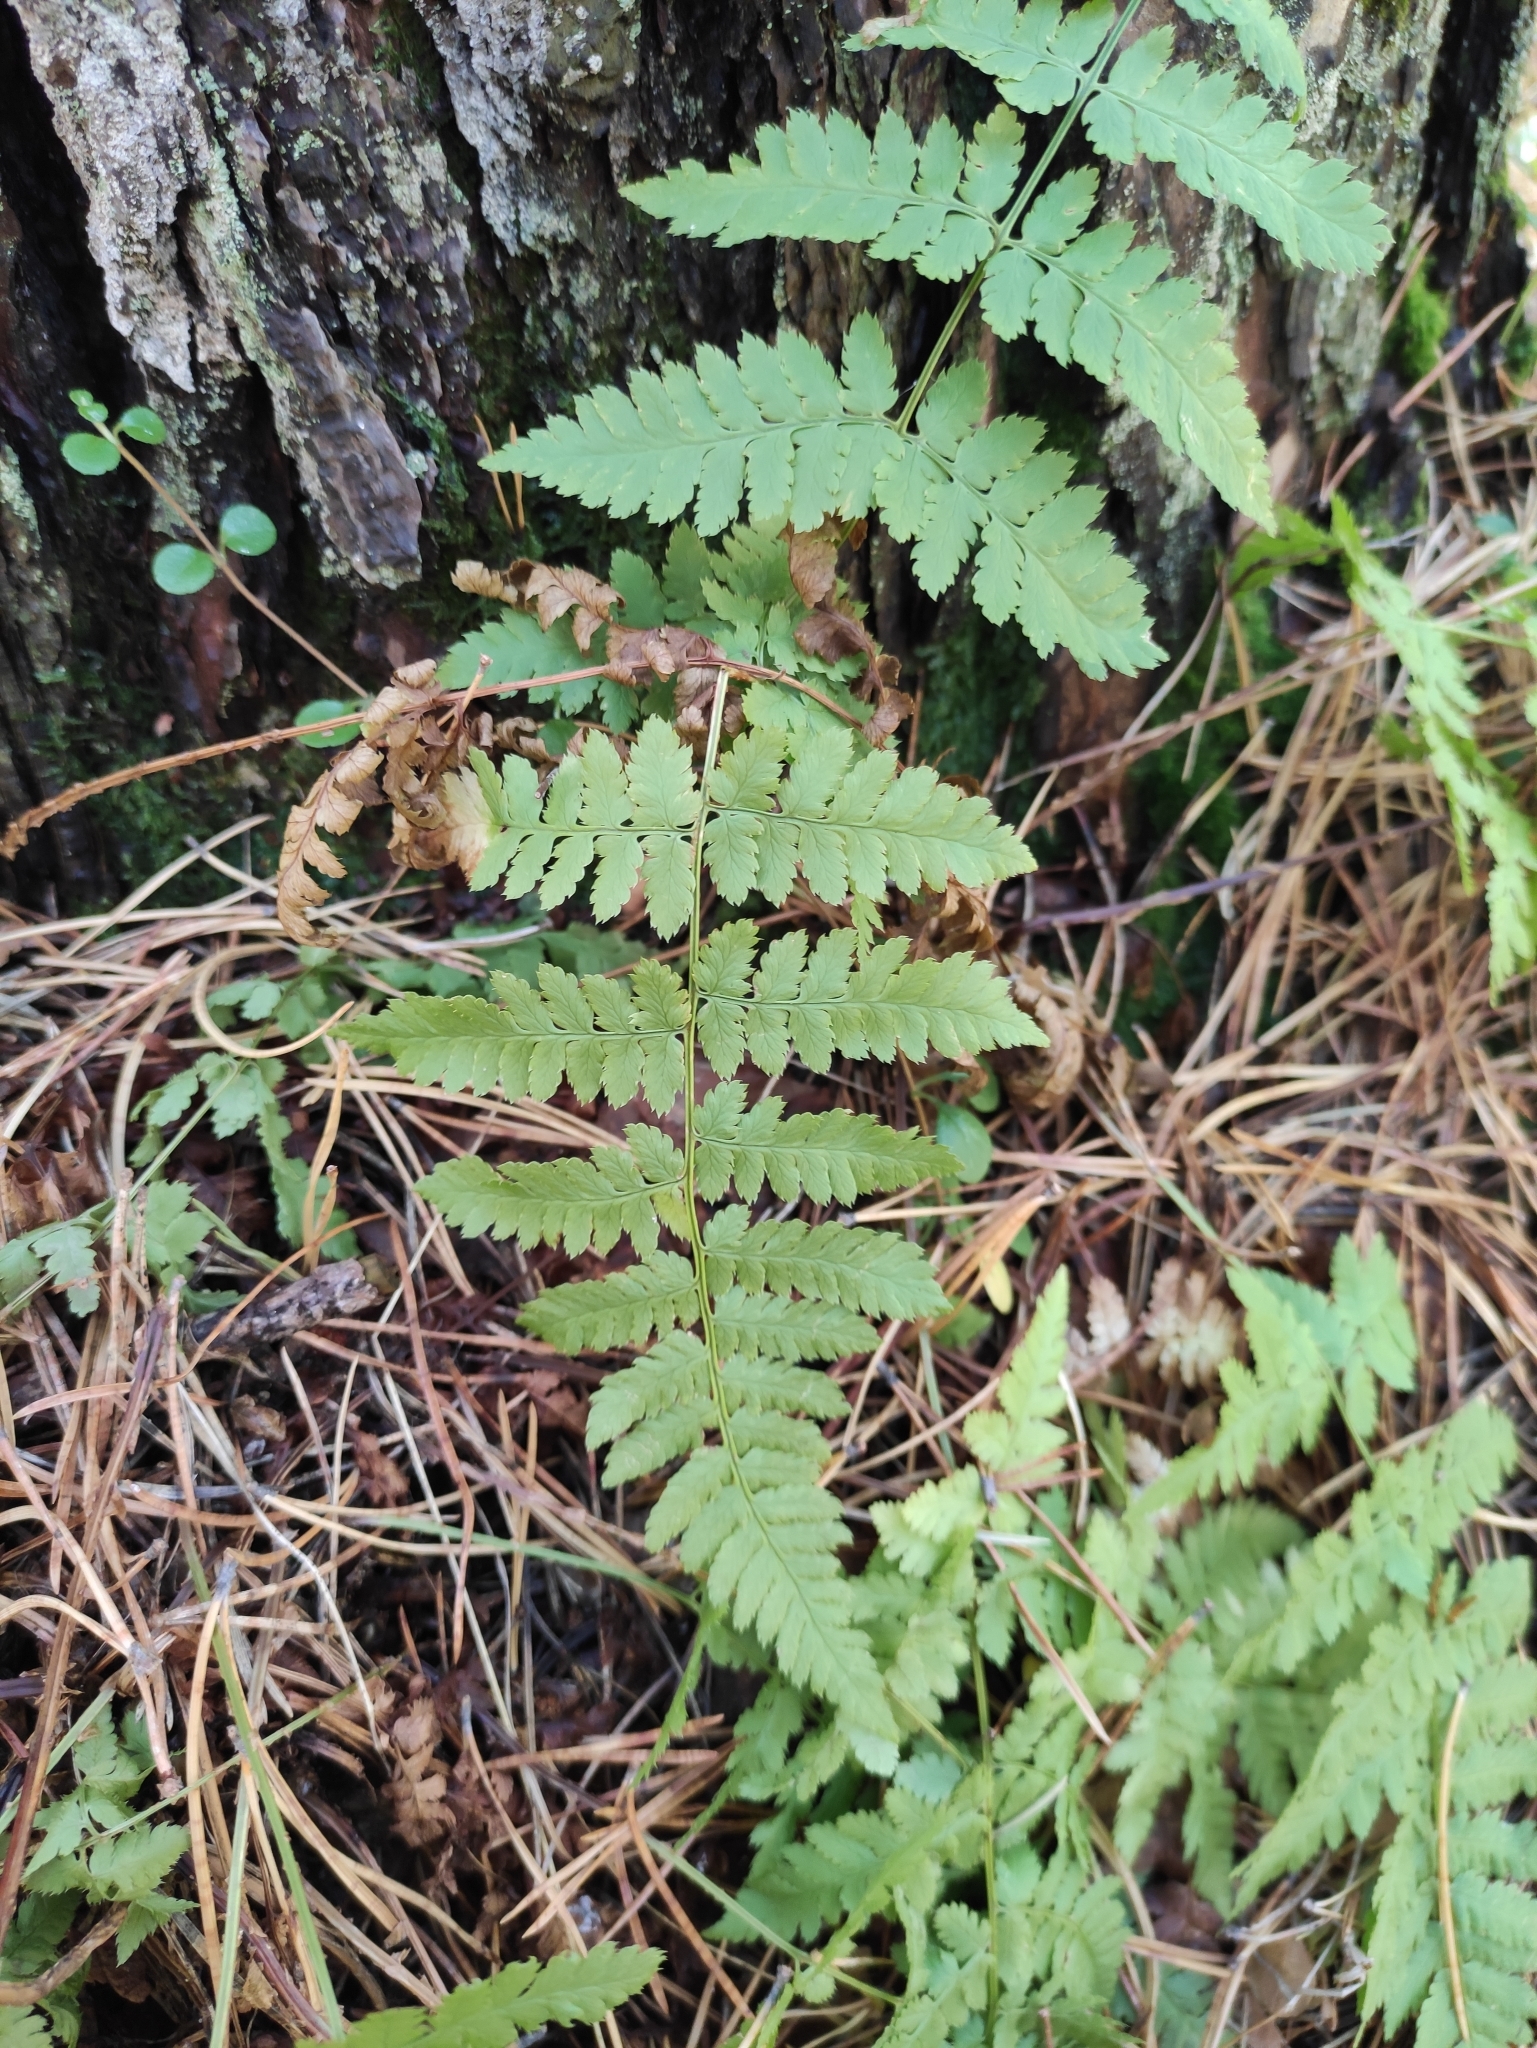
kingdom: Plantae
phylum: Tracheophyta
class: Polypodiopsida
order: Polypodiales
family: Dryopteridaceae
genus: Dryopteris
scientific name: Dryopteris carthusiana
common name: Narrow buckler-fern
